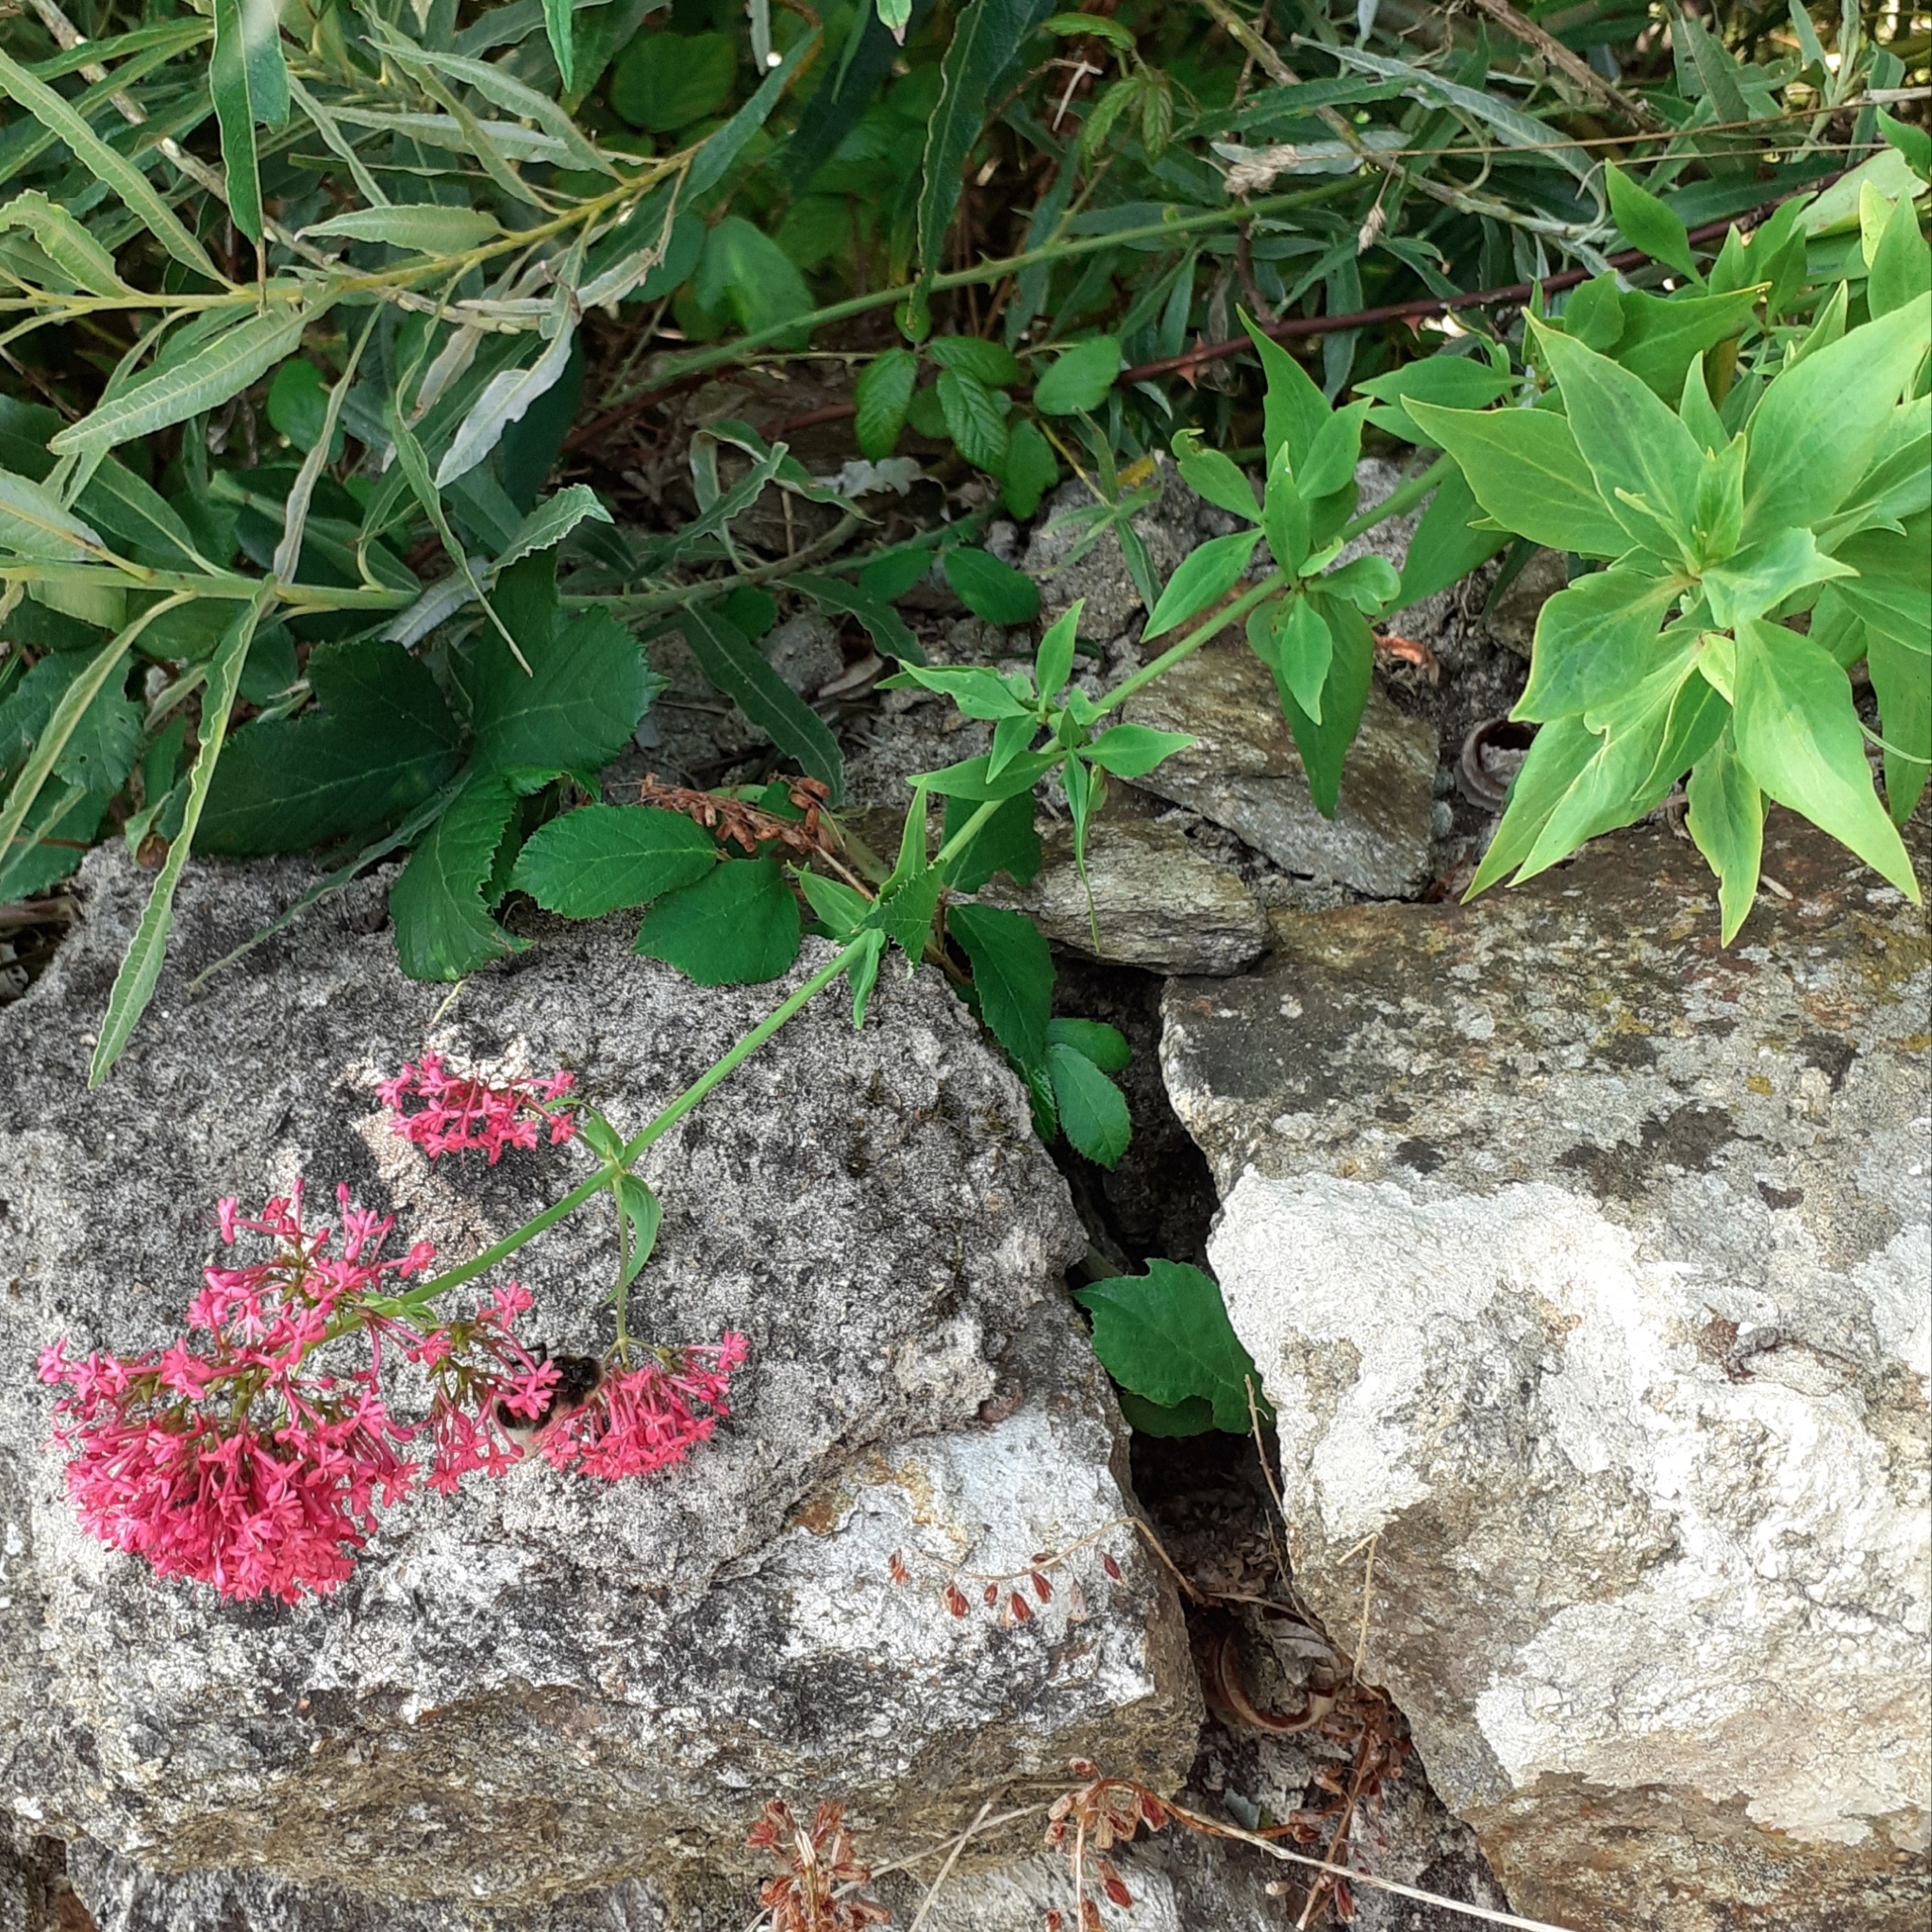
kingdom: Plantae
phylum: Tracheophyta
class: Magnoliopsida
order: Dipsacales
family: Caprifoliaceae
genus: Centranthus
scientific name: Centranthus ruber
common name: Red valerian
